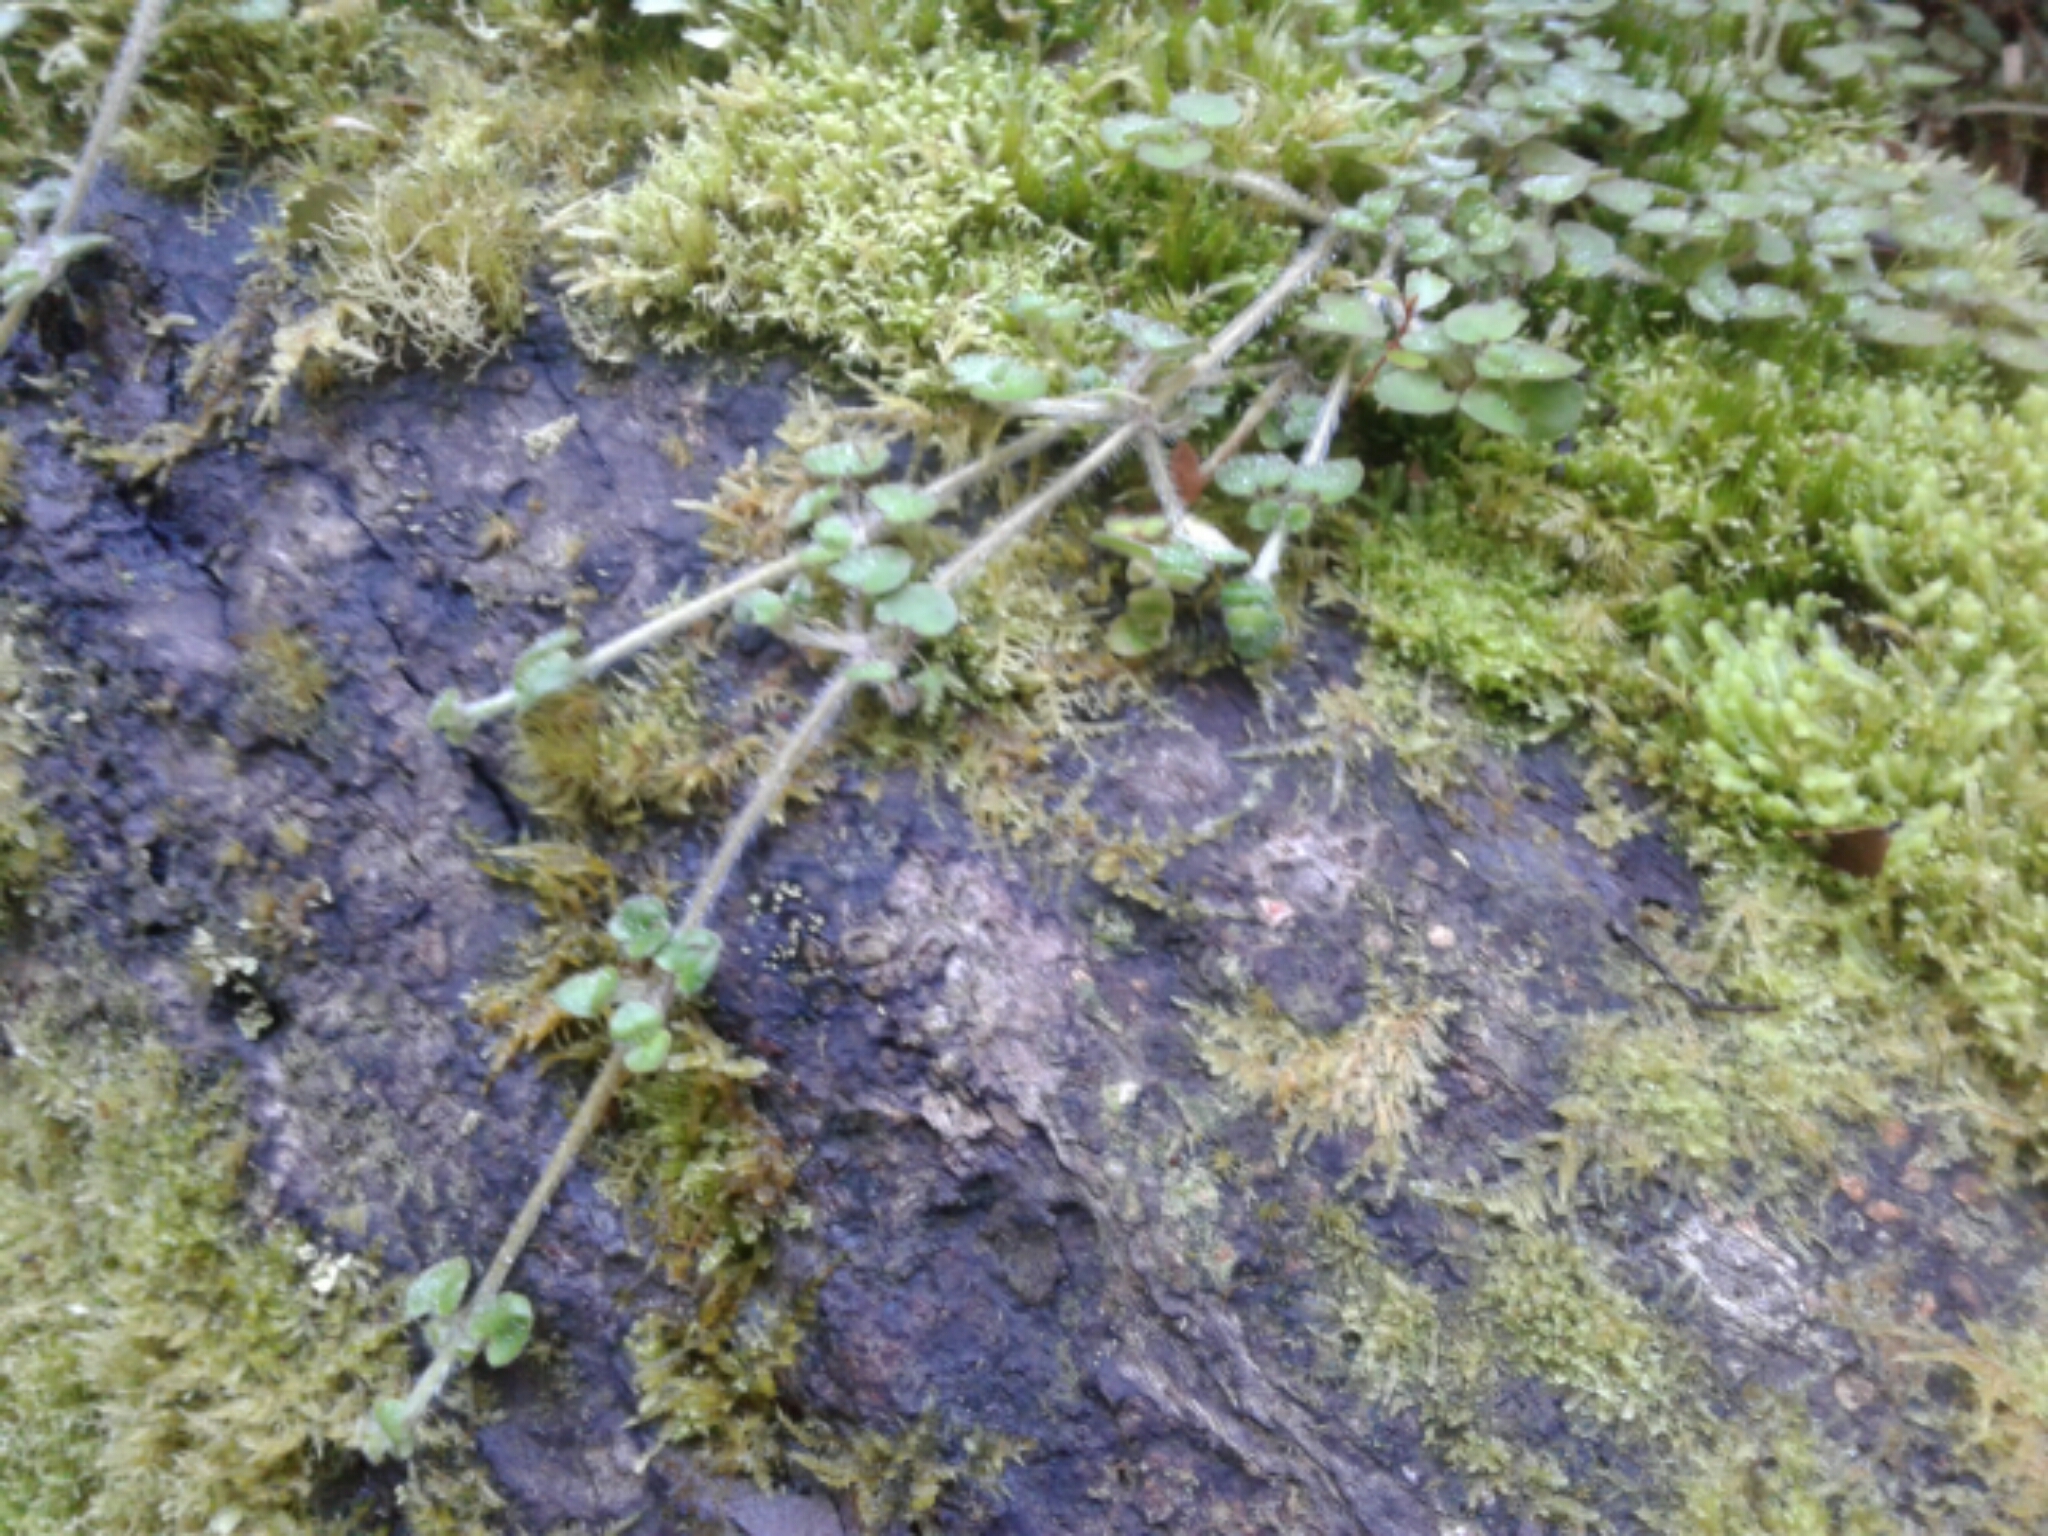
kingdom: Plantae
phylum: Tracheophyta
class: Magnoliopsida
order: Gentianales
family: Rubiaceae
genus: Nertera
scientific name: Nertera villosa
